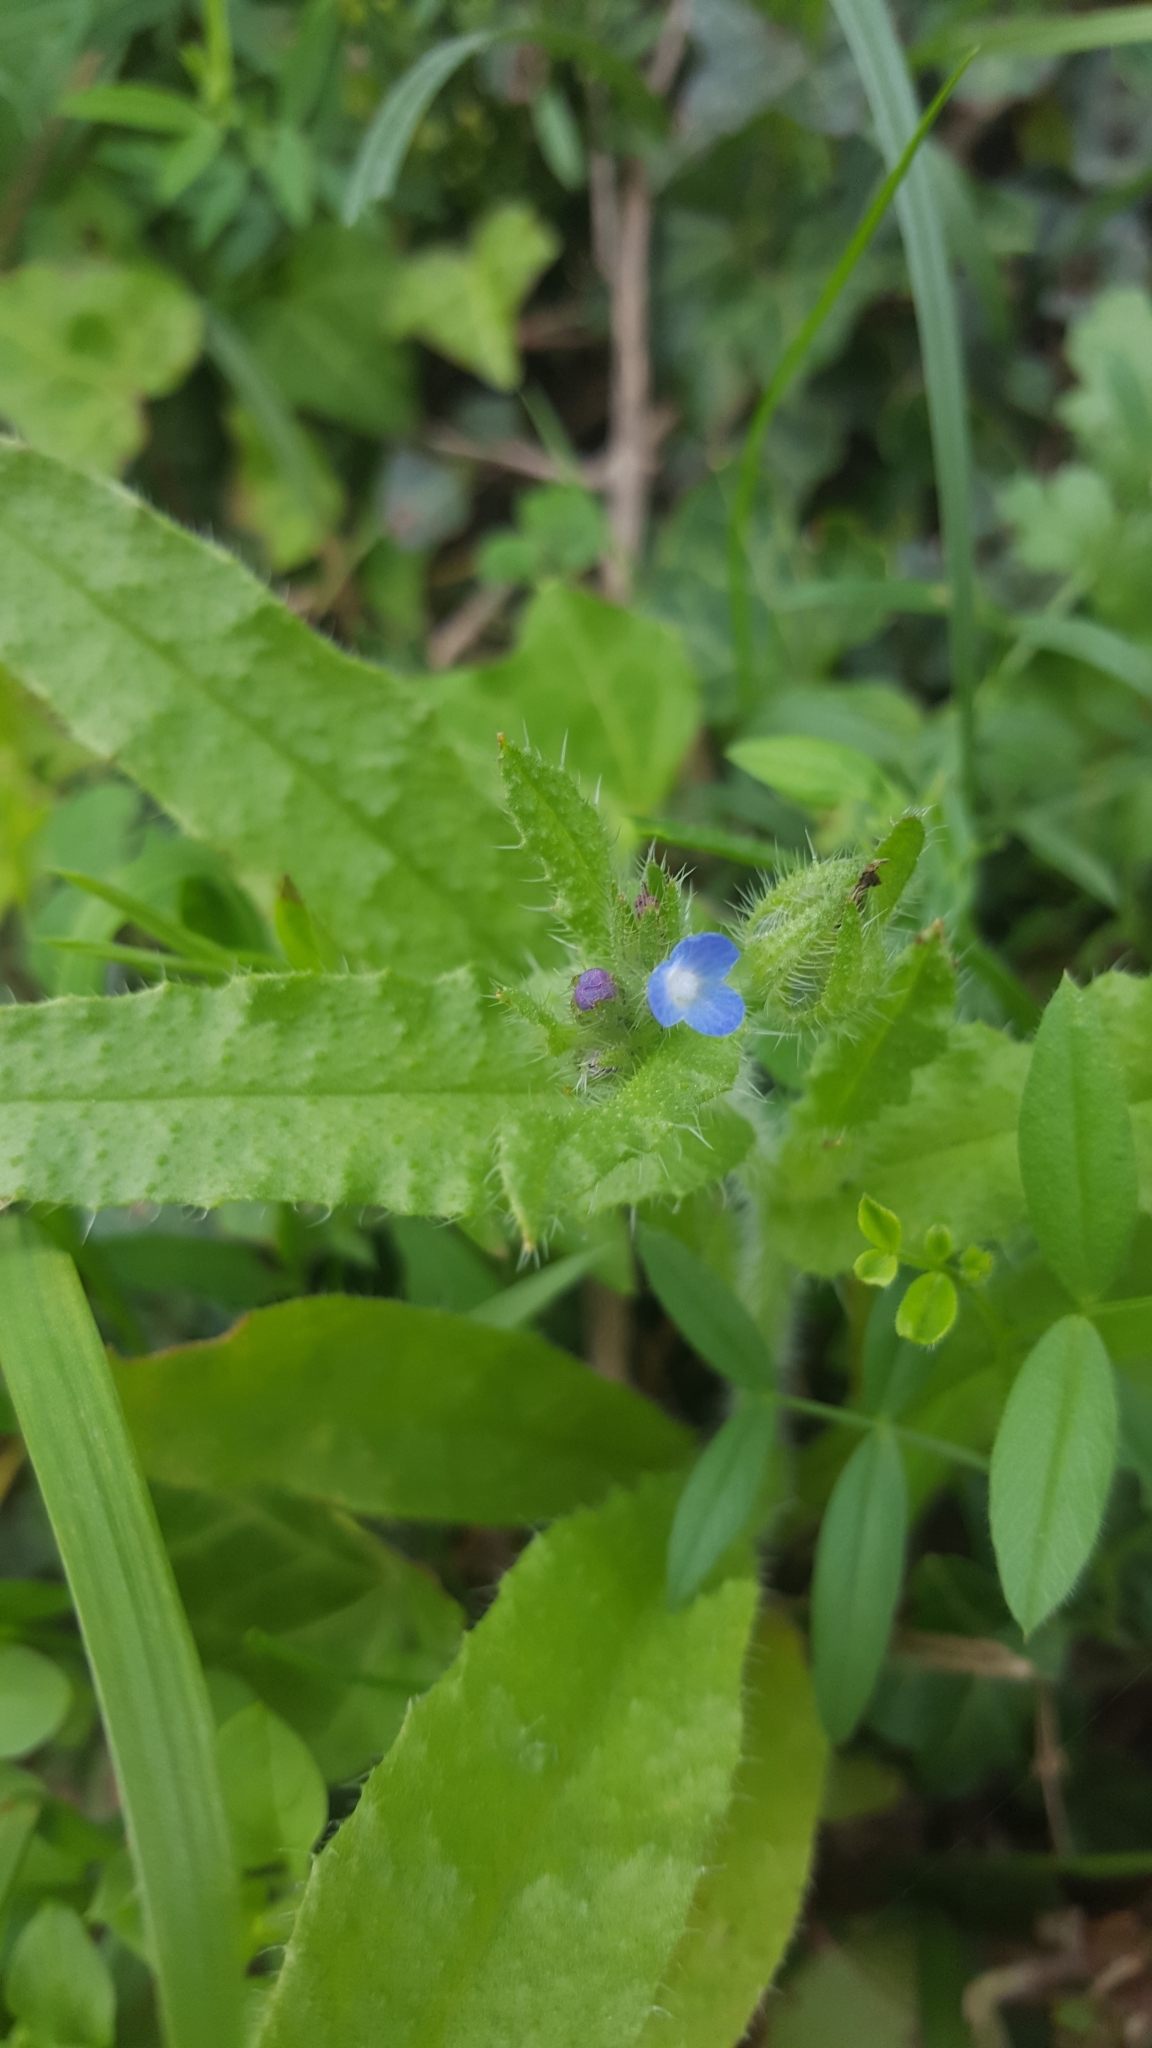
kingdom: Plantae
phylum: Tracheophyta
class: Magnoliopsida
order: Boraginales
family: Boraginaceae
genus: Lycopsis
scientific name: Lycopsis arvensis
